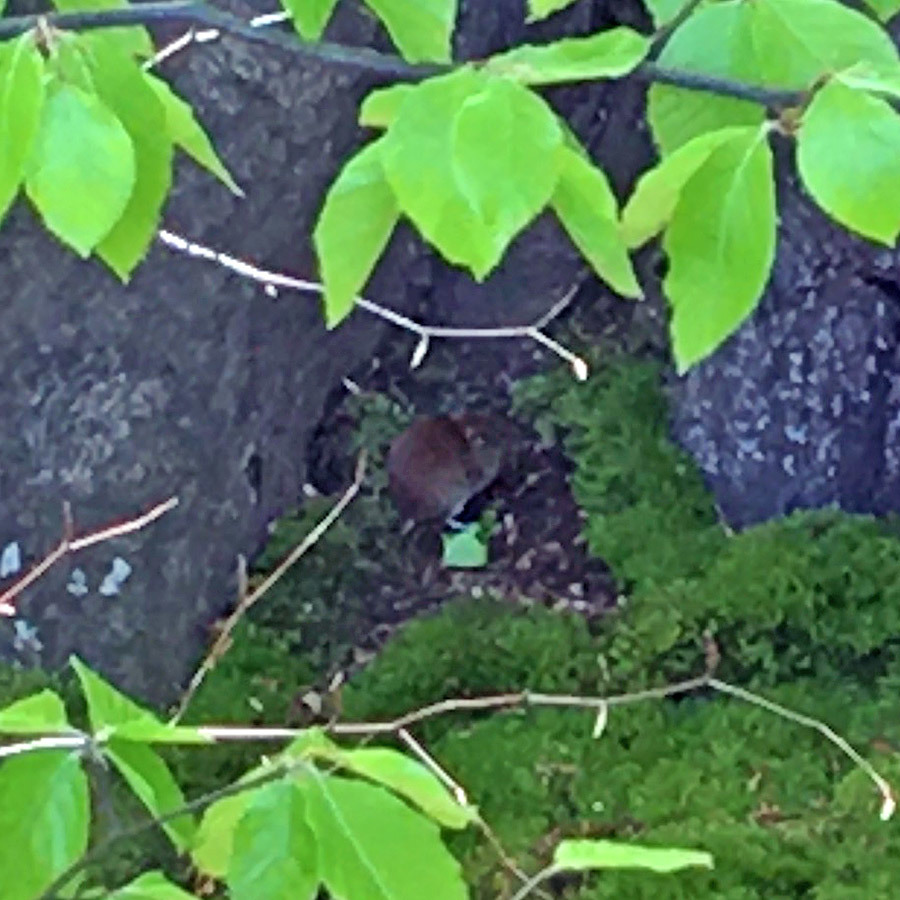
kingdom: Animalia
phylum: Chordata
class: Mammalia
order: Rodentia
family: Cricetidae
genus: Myodes
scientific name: Myodes glareolus
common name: Bank vole
